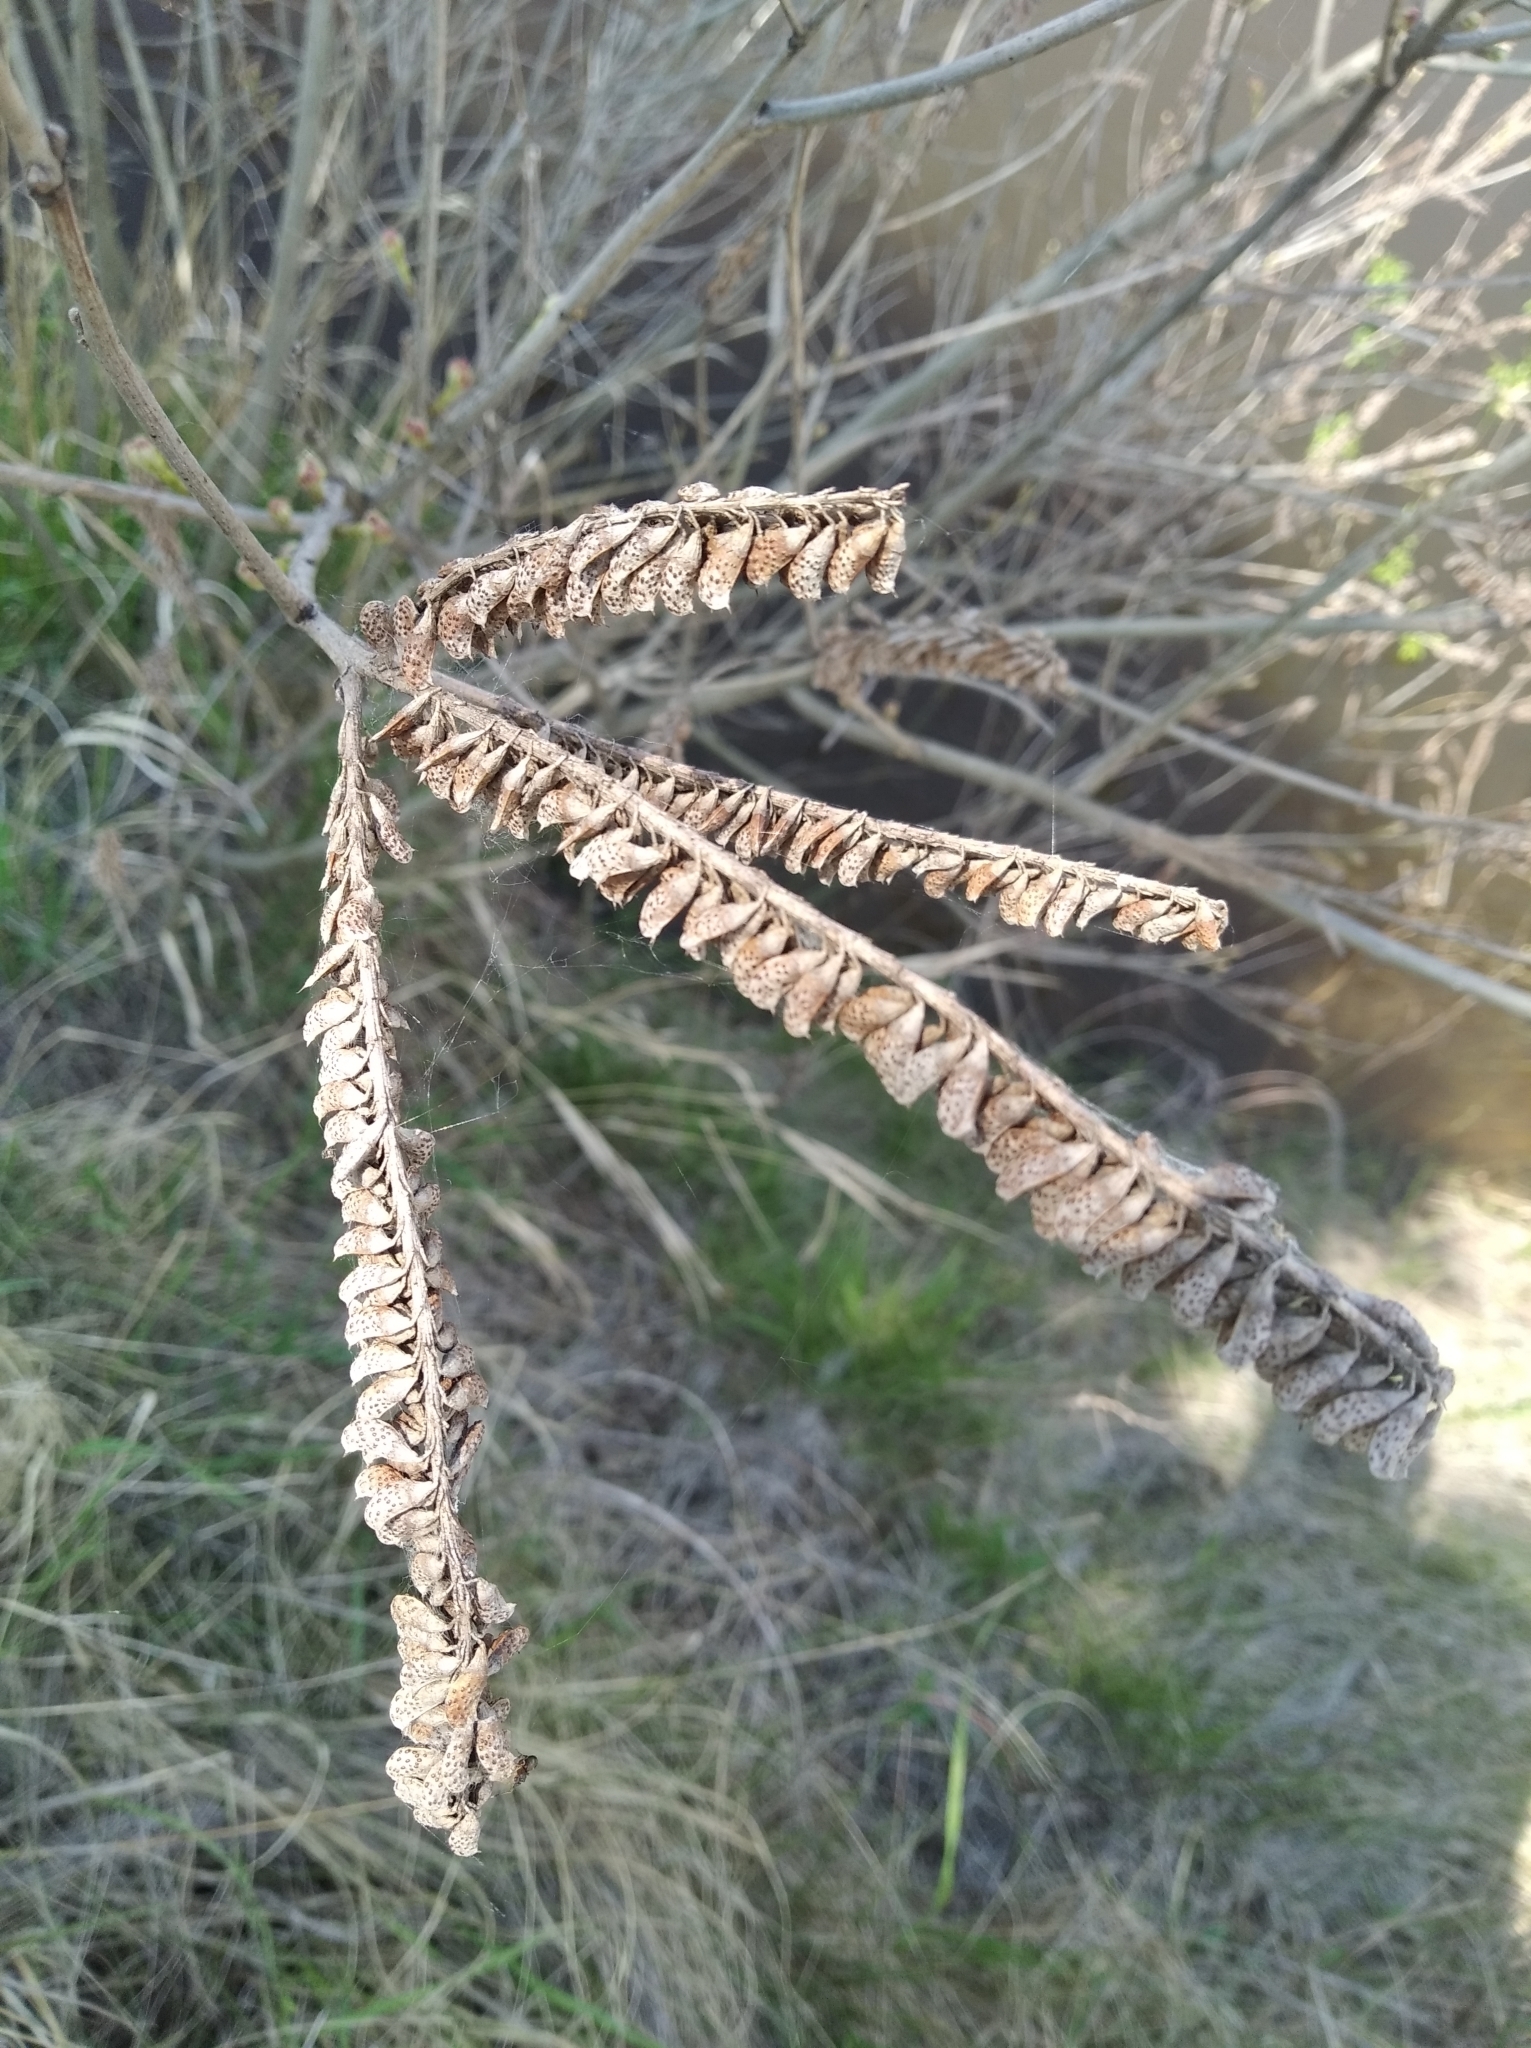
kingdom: Plantae
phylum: Tracheophyta
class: Magnoliopsida
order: Fabales
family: Fabaceae
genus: Amorpha
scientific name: Amorpha fruticosa
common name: False indigo
